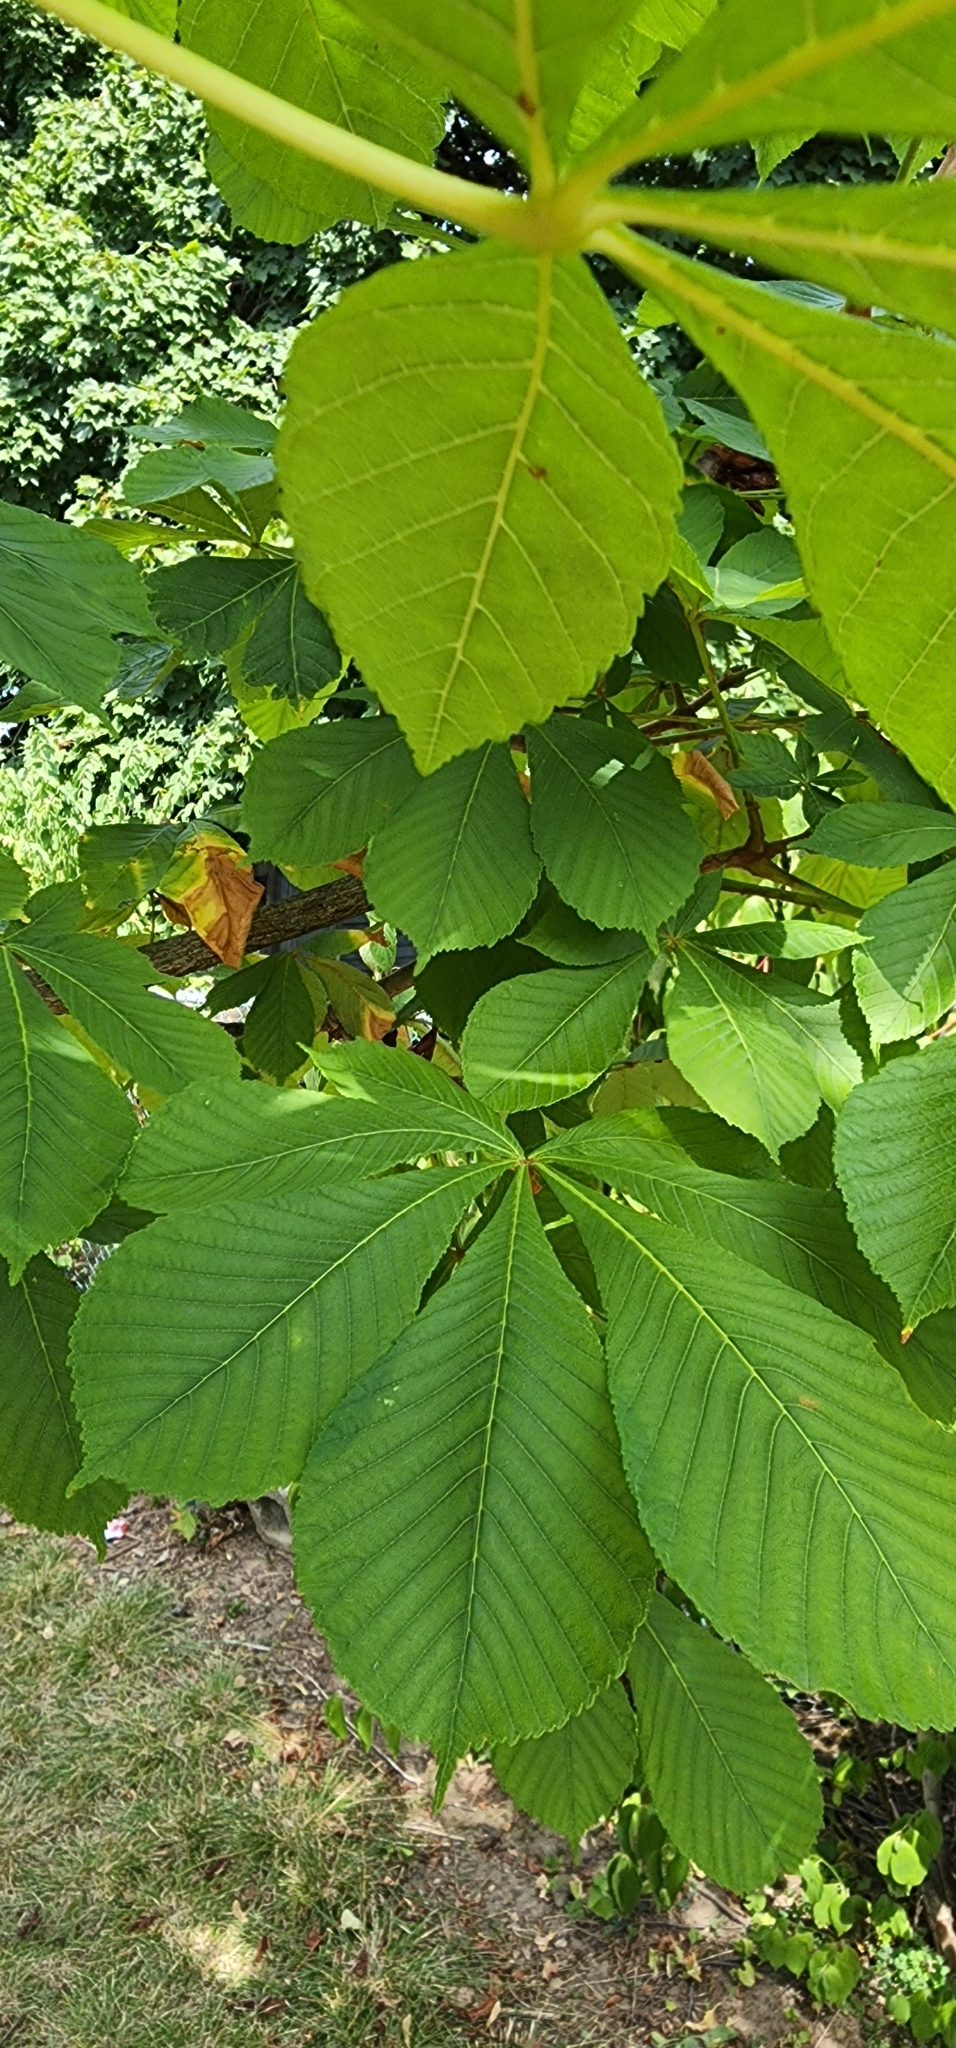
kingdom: Plantae
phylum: Tracheophyta
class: Magnoliopsida
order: Sapindales
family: Sapindaceae
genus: Aesculus
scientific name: Aesculus hippocastanum
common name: Horse-chestnut
